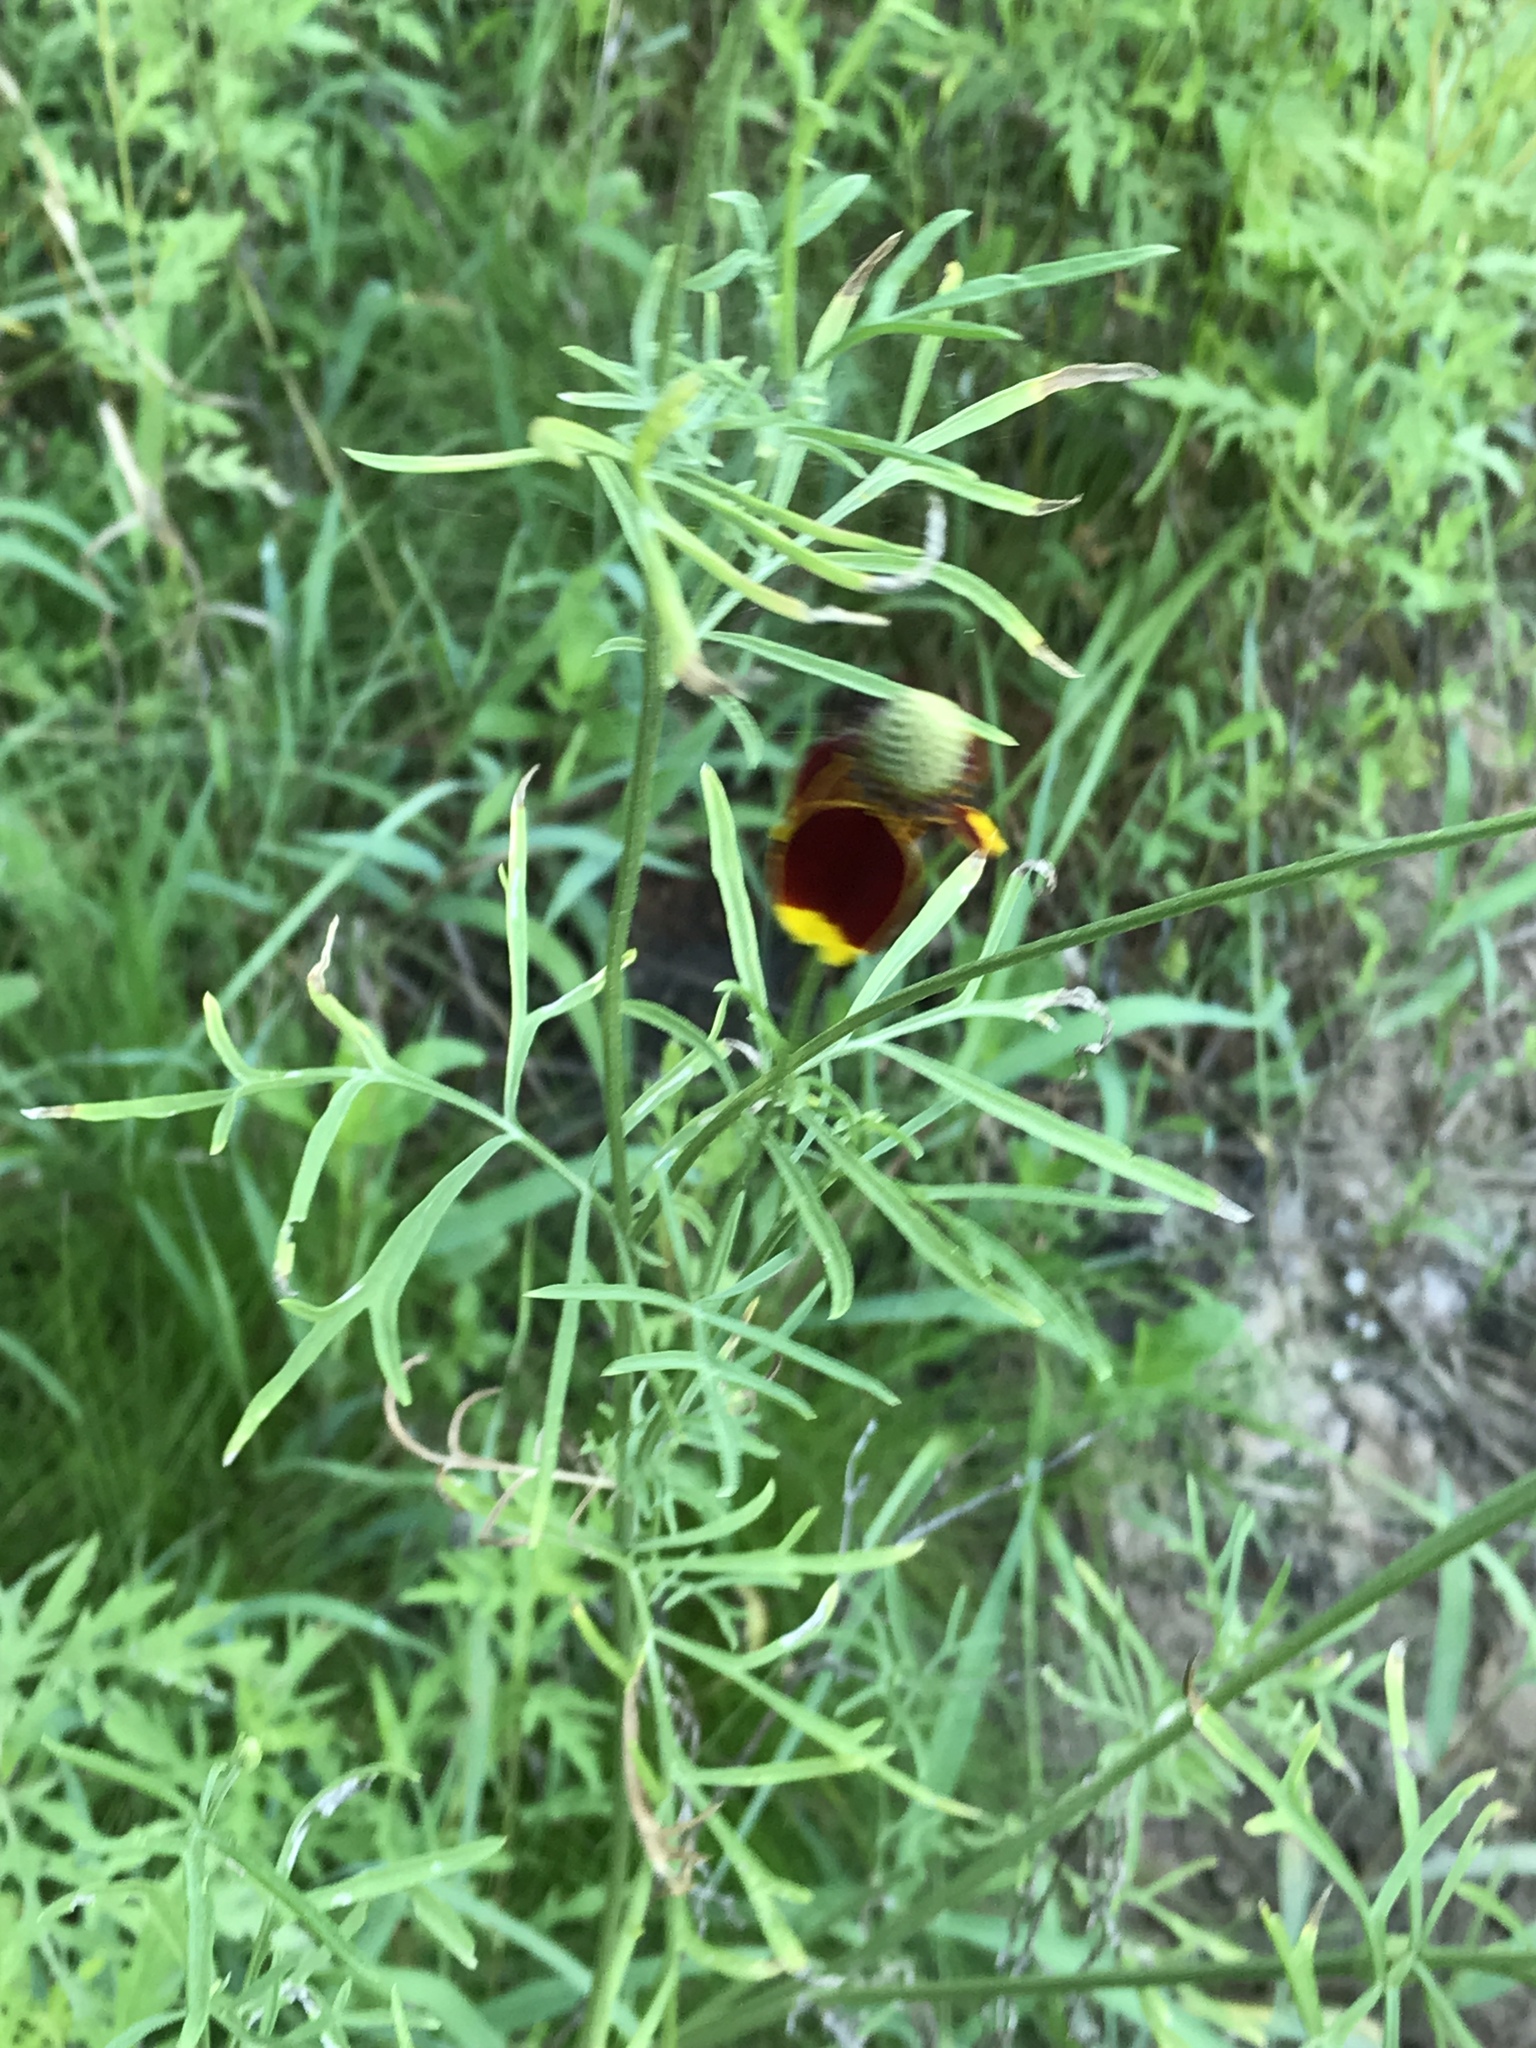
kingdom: Plantae
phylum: Tracheophyta
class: Magnoliopsida
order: Asterales
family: Asteraceae
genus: Ratibida
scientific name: Ratibida columnifera
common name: Prairie coneflower
